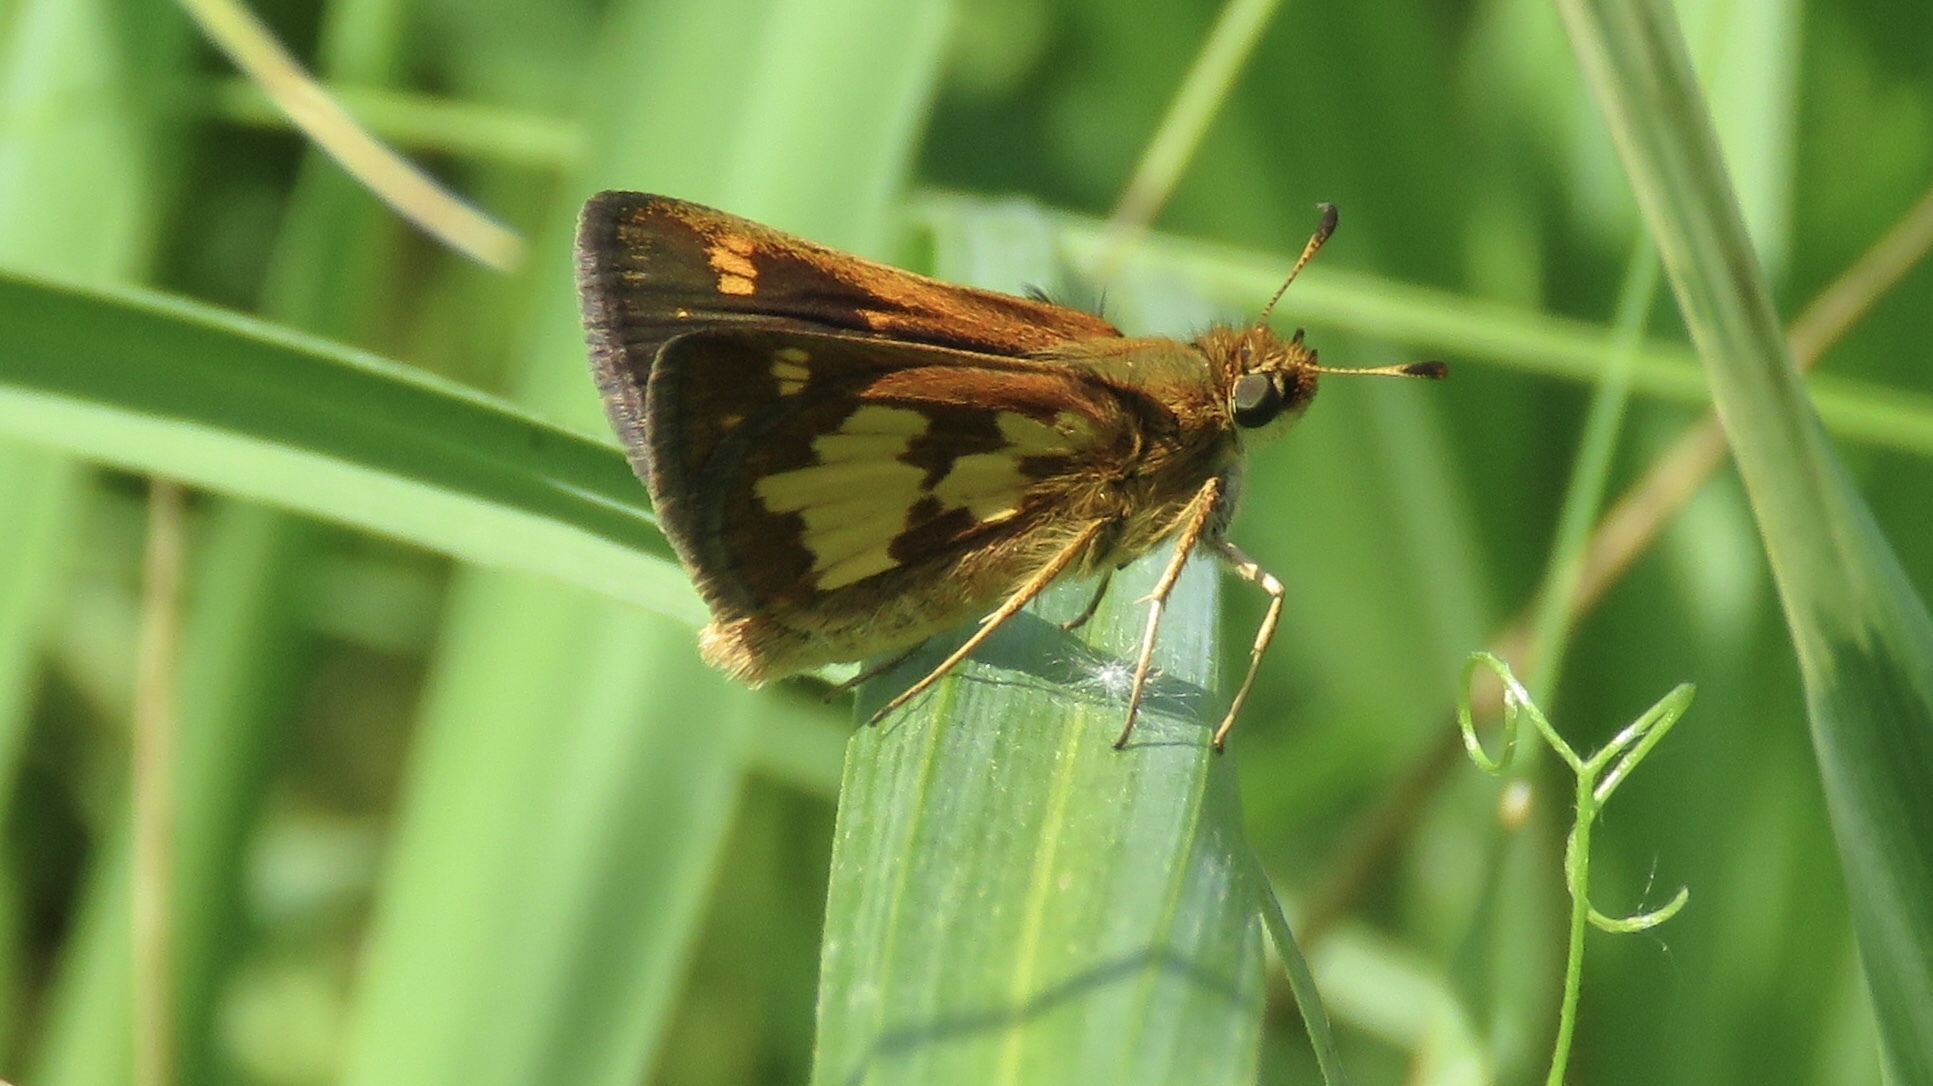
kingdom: Animalia
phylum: Arthropoda
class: Insecta
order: Lepidoptera
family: Hesperiidae
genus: Polites
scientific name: Polites coras
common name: Peck's skipper
